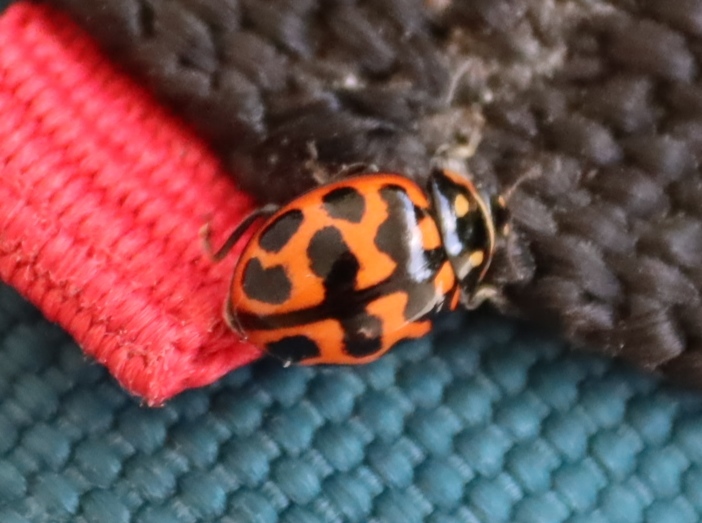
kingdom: Animalia
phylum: Arthropoda
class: Insecta
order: Coleoptera
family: Coccinellidae
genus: Lioadalia
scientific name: Lioadalia flavomaculata
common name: Ladybird beetle
